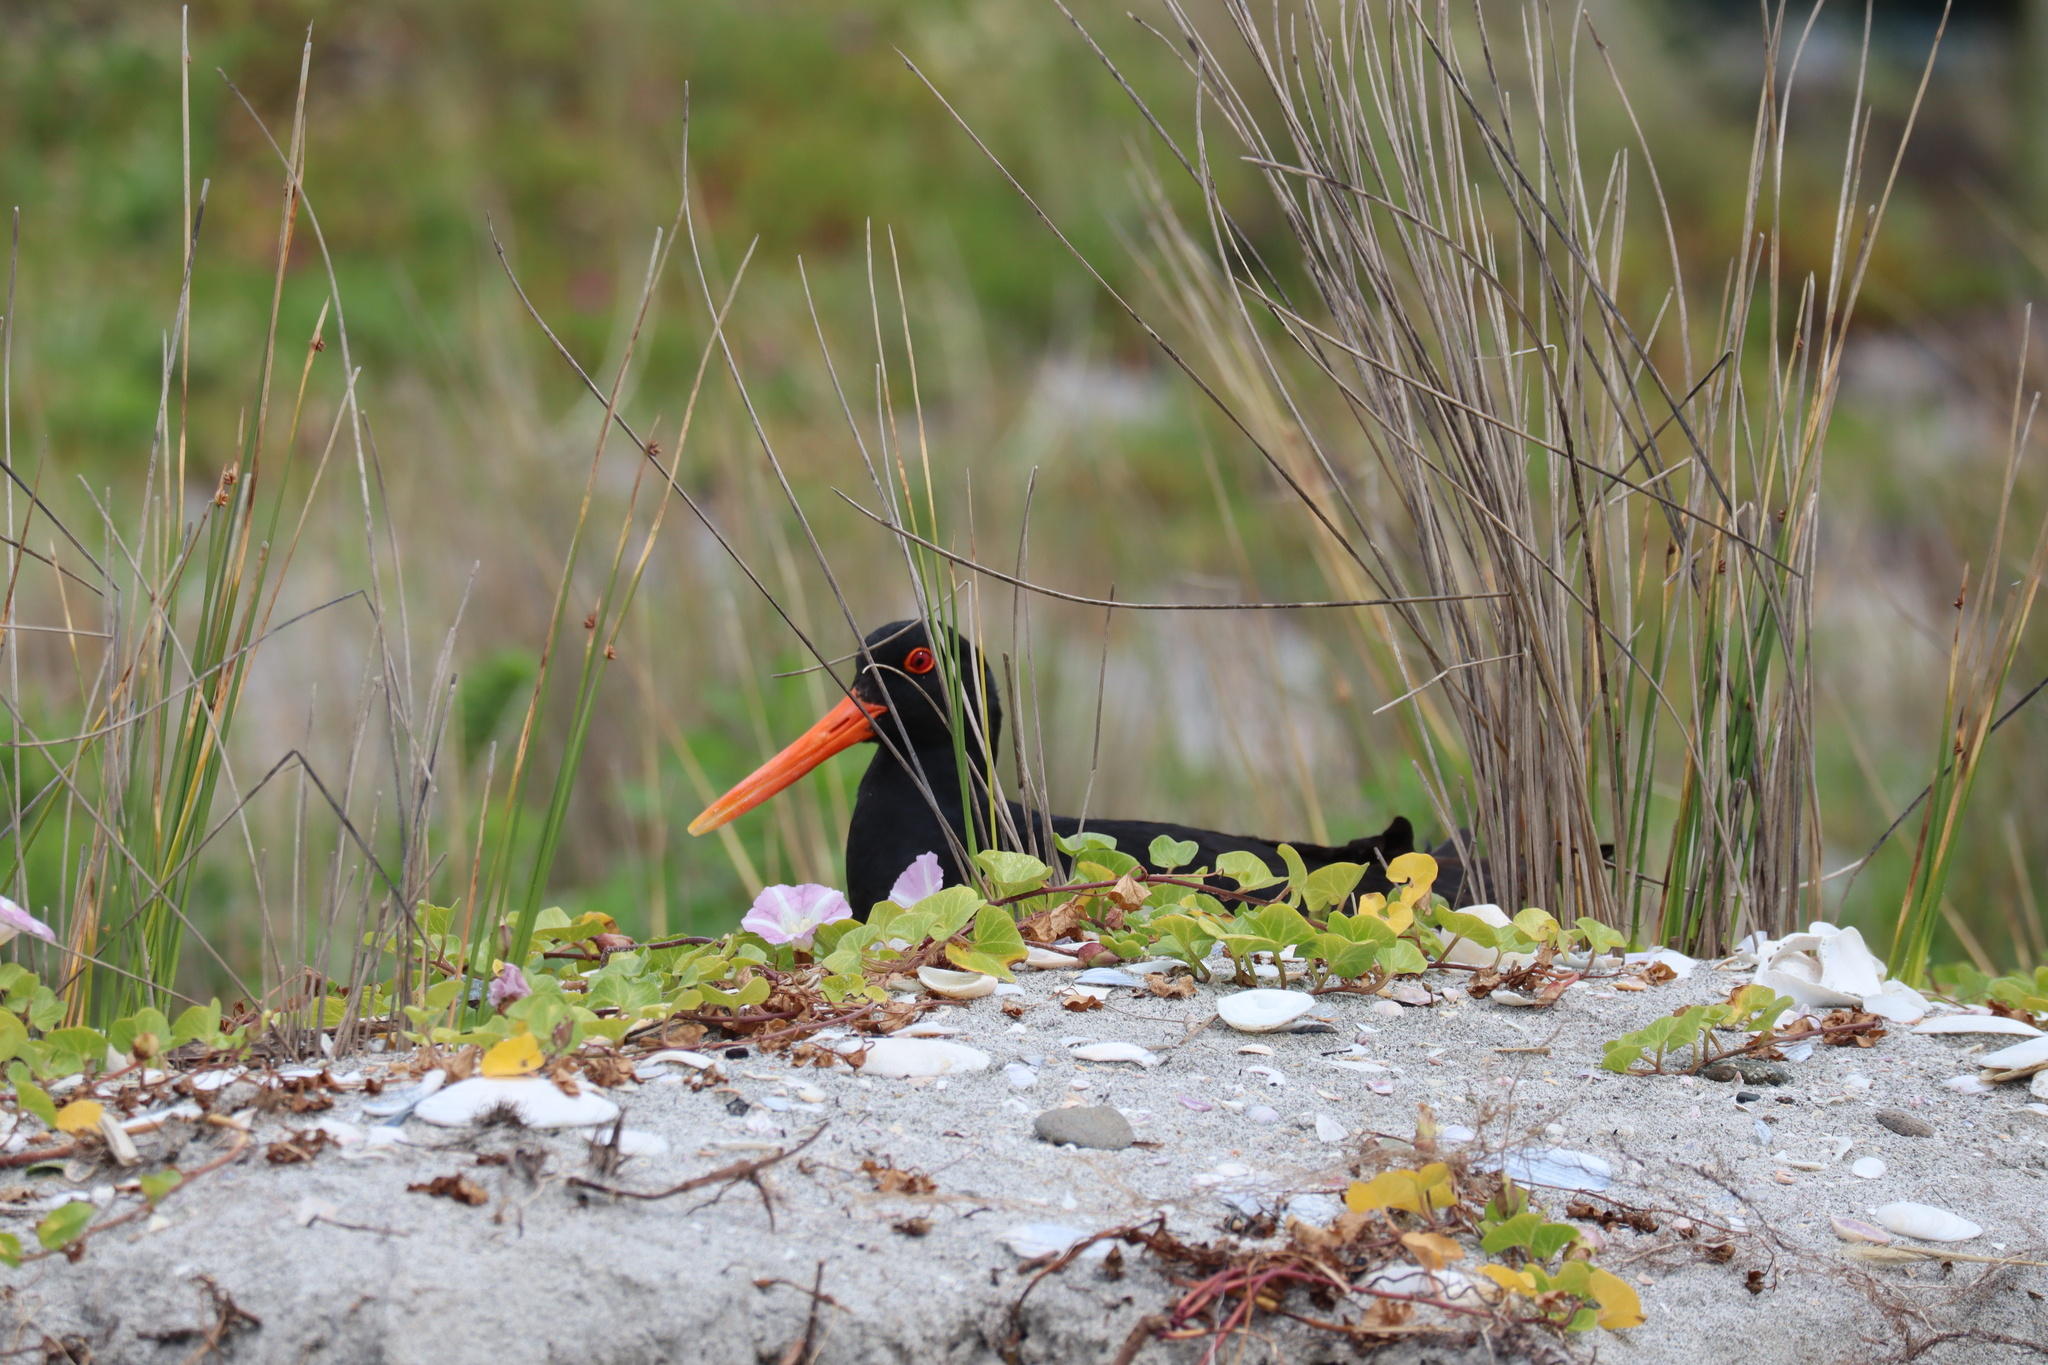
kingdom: Animalia
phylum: Chordata
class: Aves
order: Charadriiformes
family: Haematopodidae
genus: Haematopus
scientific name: Haematopus unicolor
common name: Variable oystercatcher
